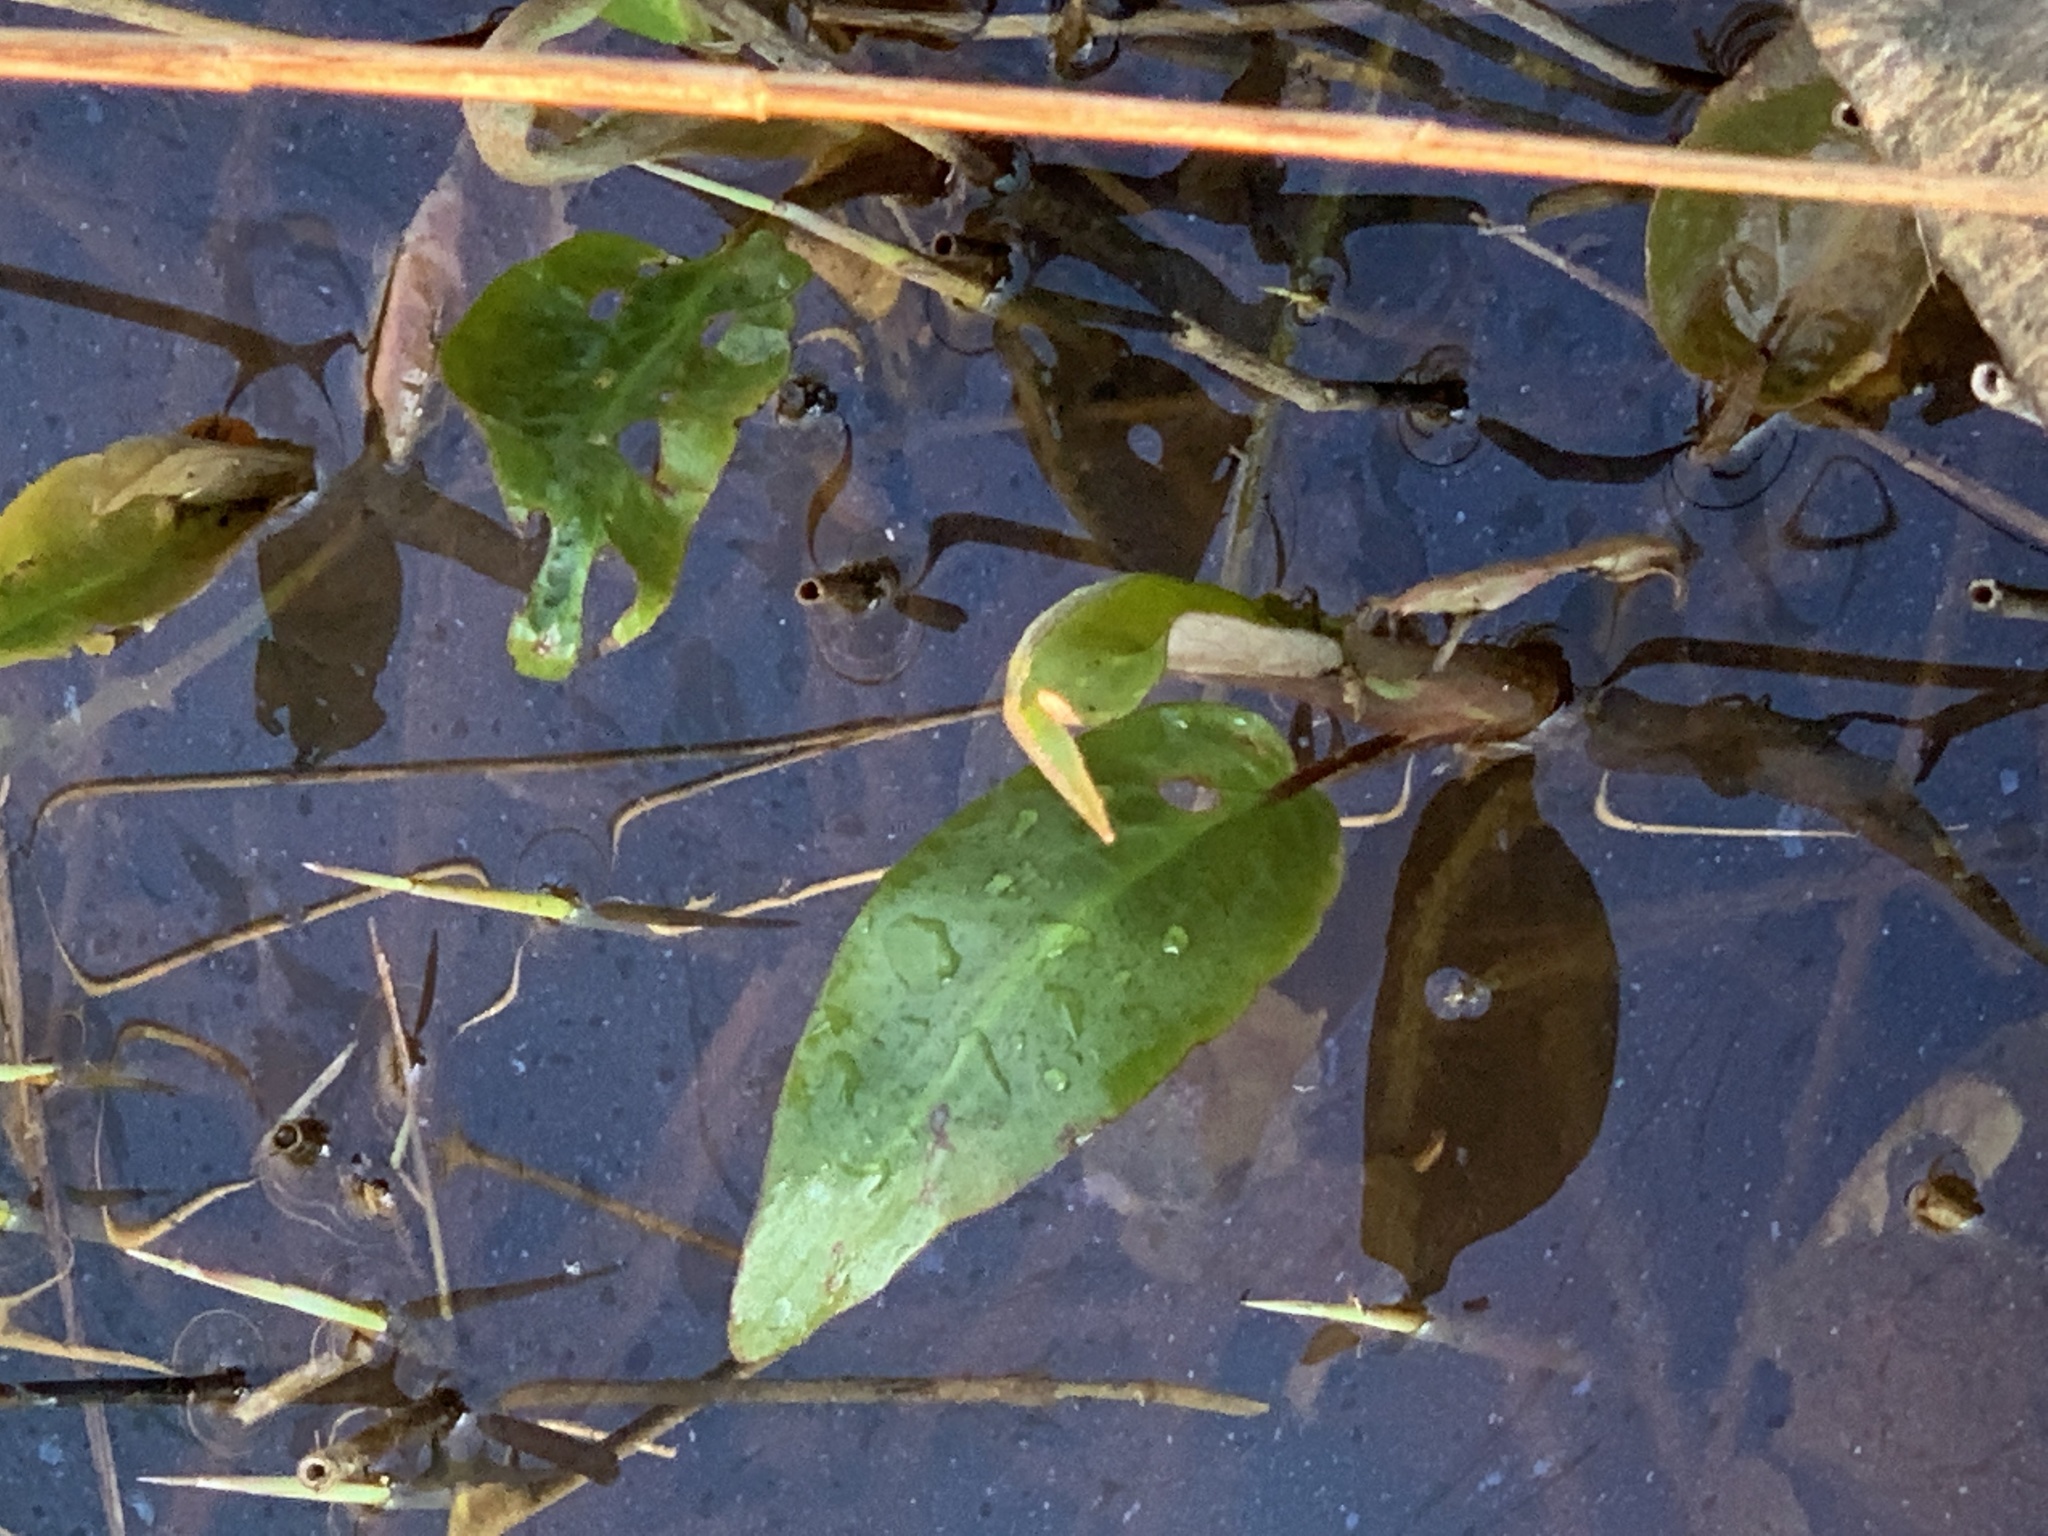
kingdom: Plantae
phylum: Tracheophyta
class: Liliopsida
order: Alismatales
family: Alismataceae
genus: Alisma
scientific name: Alisma plantago-aquatica
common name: Water-plantain
